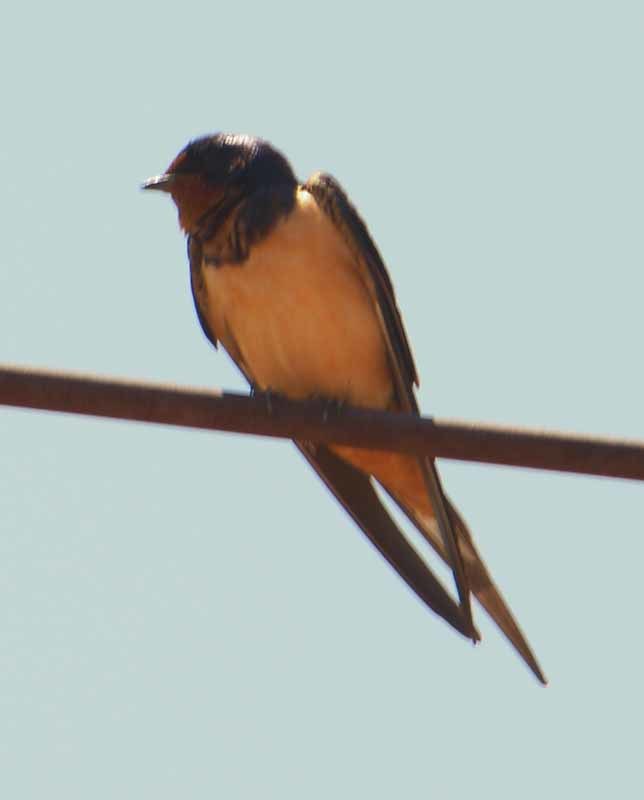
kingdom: Animalia
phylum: Chordata
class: Aves
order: Passeriformes
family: Hirundinidae
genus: Hirundo
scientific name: Hirundo rustica
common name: Barn swallow
